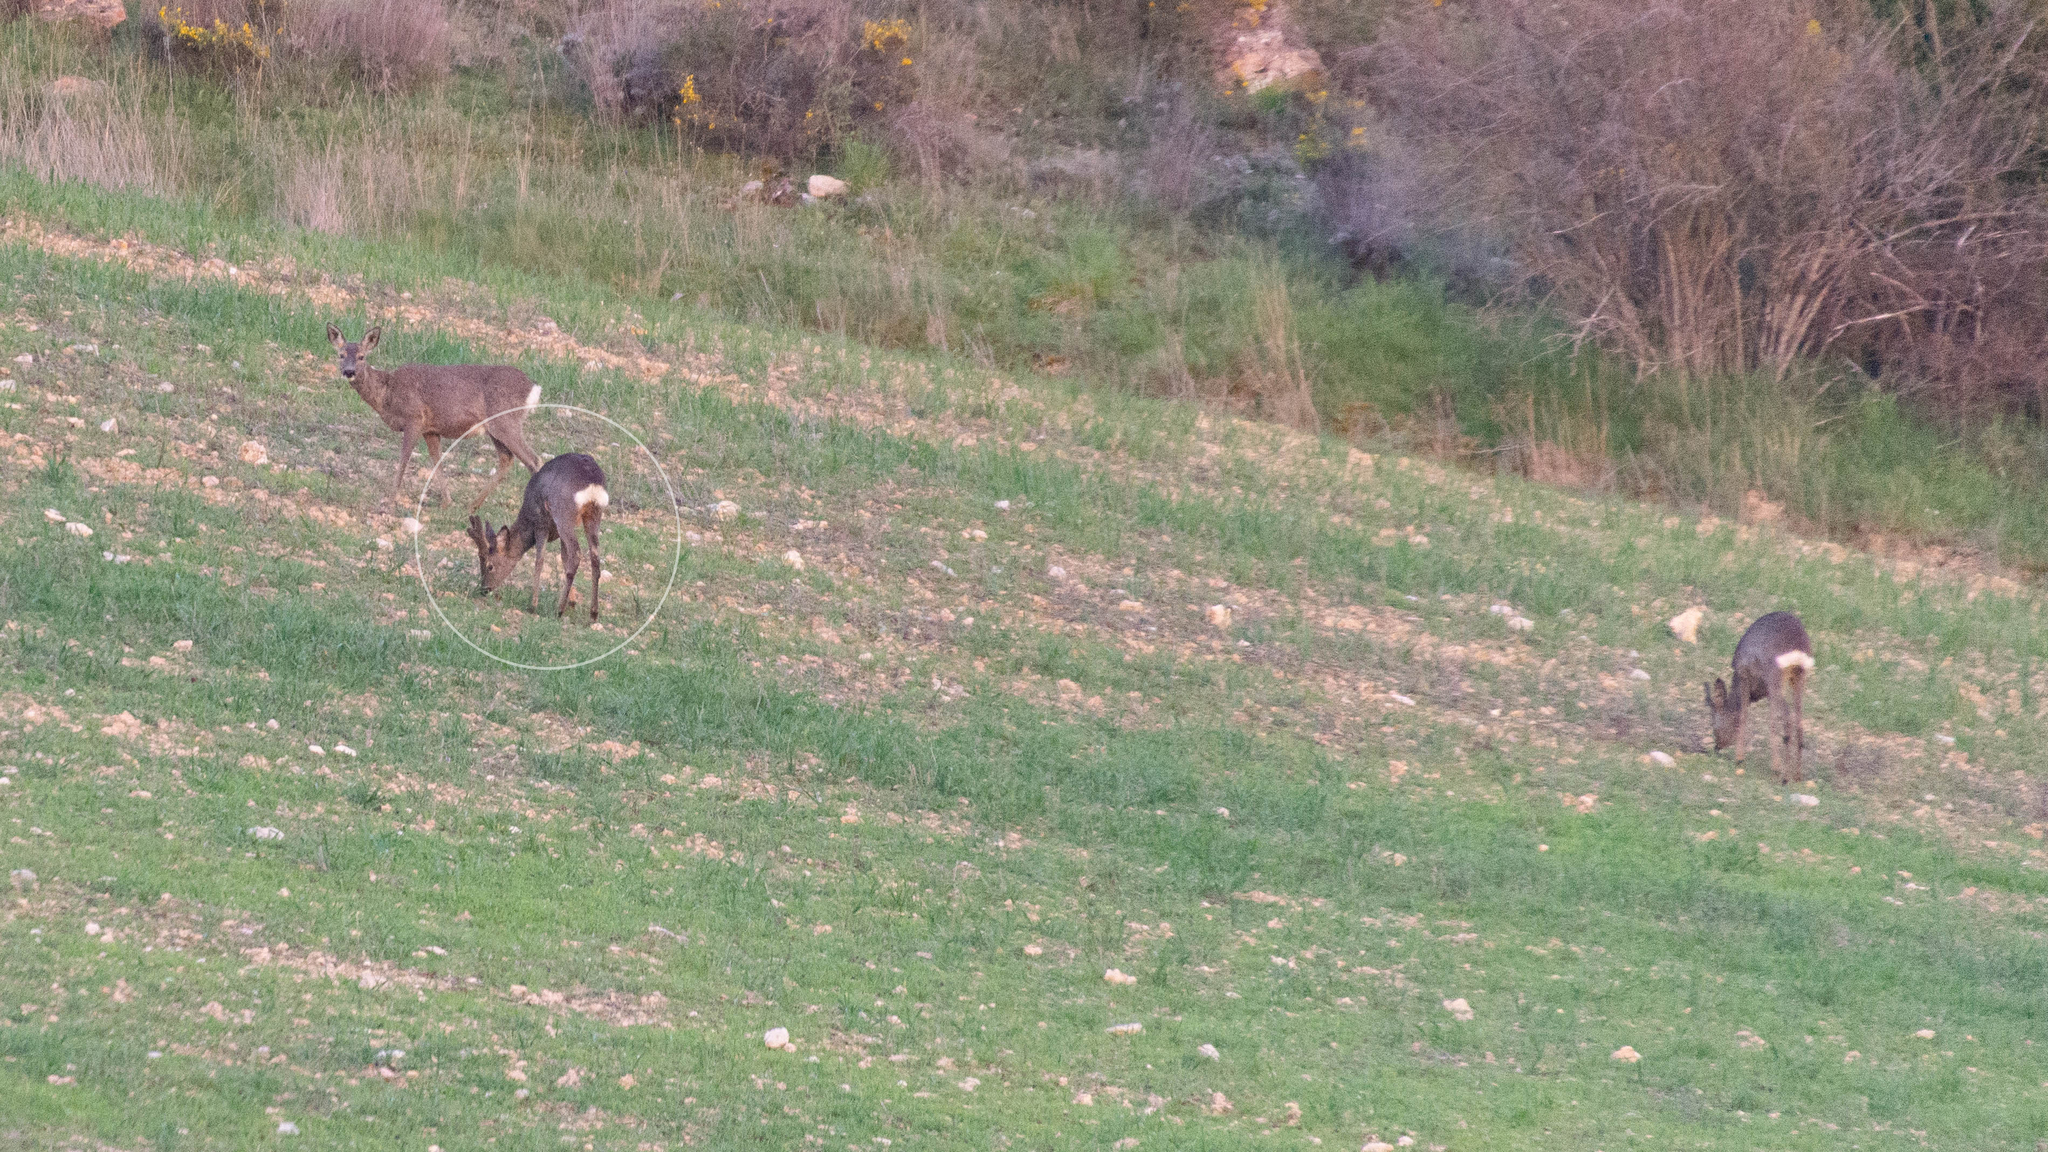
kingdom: Animalia
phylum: Chordata
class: Mammalia
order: Artiodactyla
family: Cervidae
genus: Capreolus
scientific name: Capreolus capreolus
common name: Western roe deer
